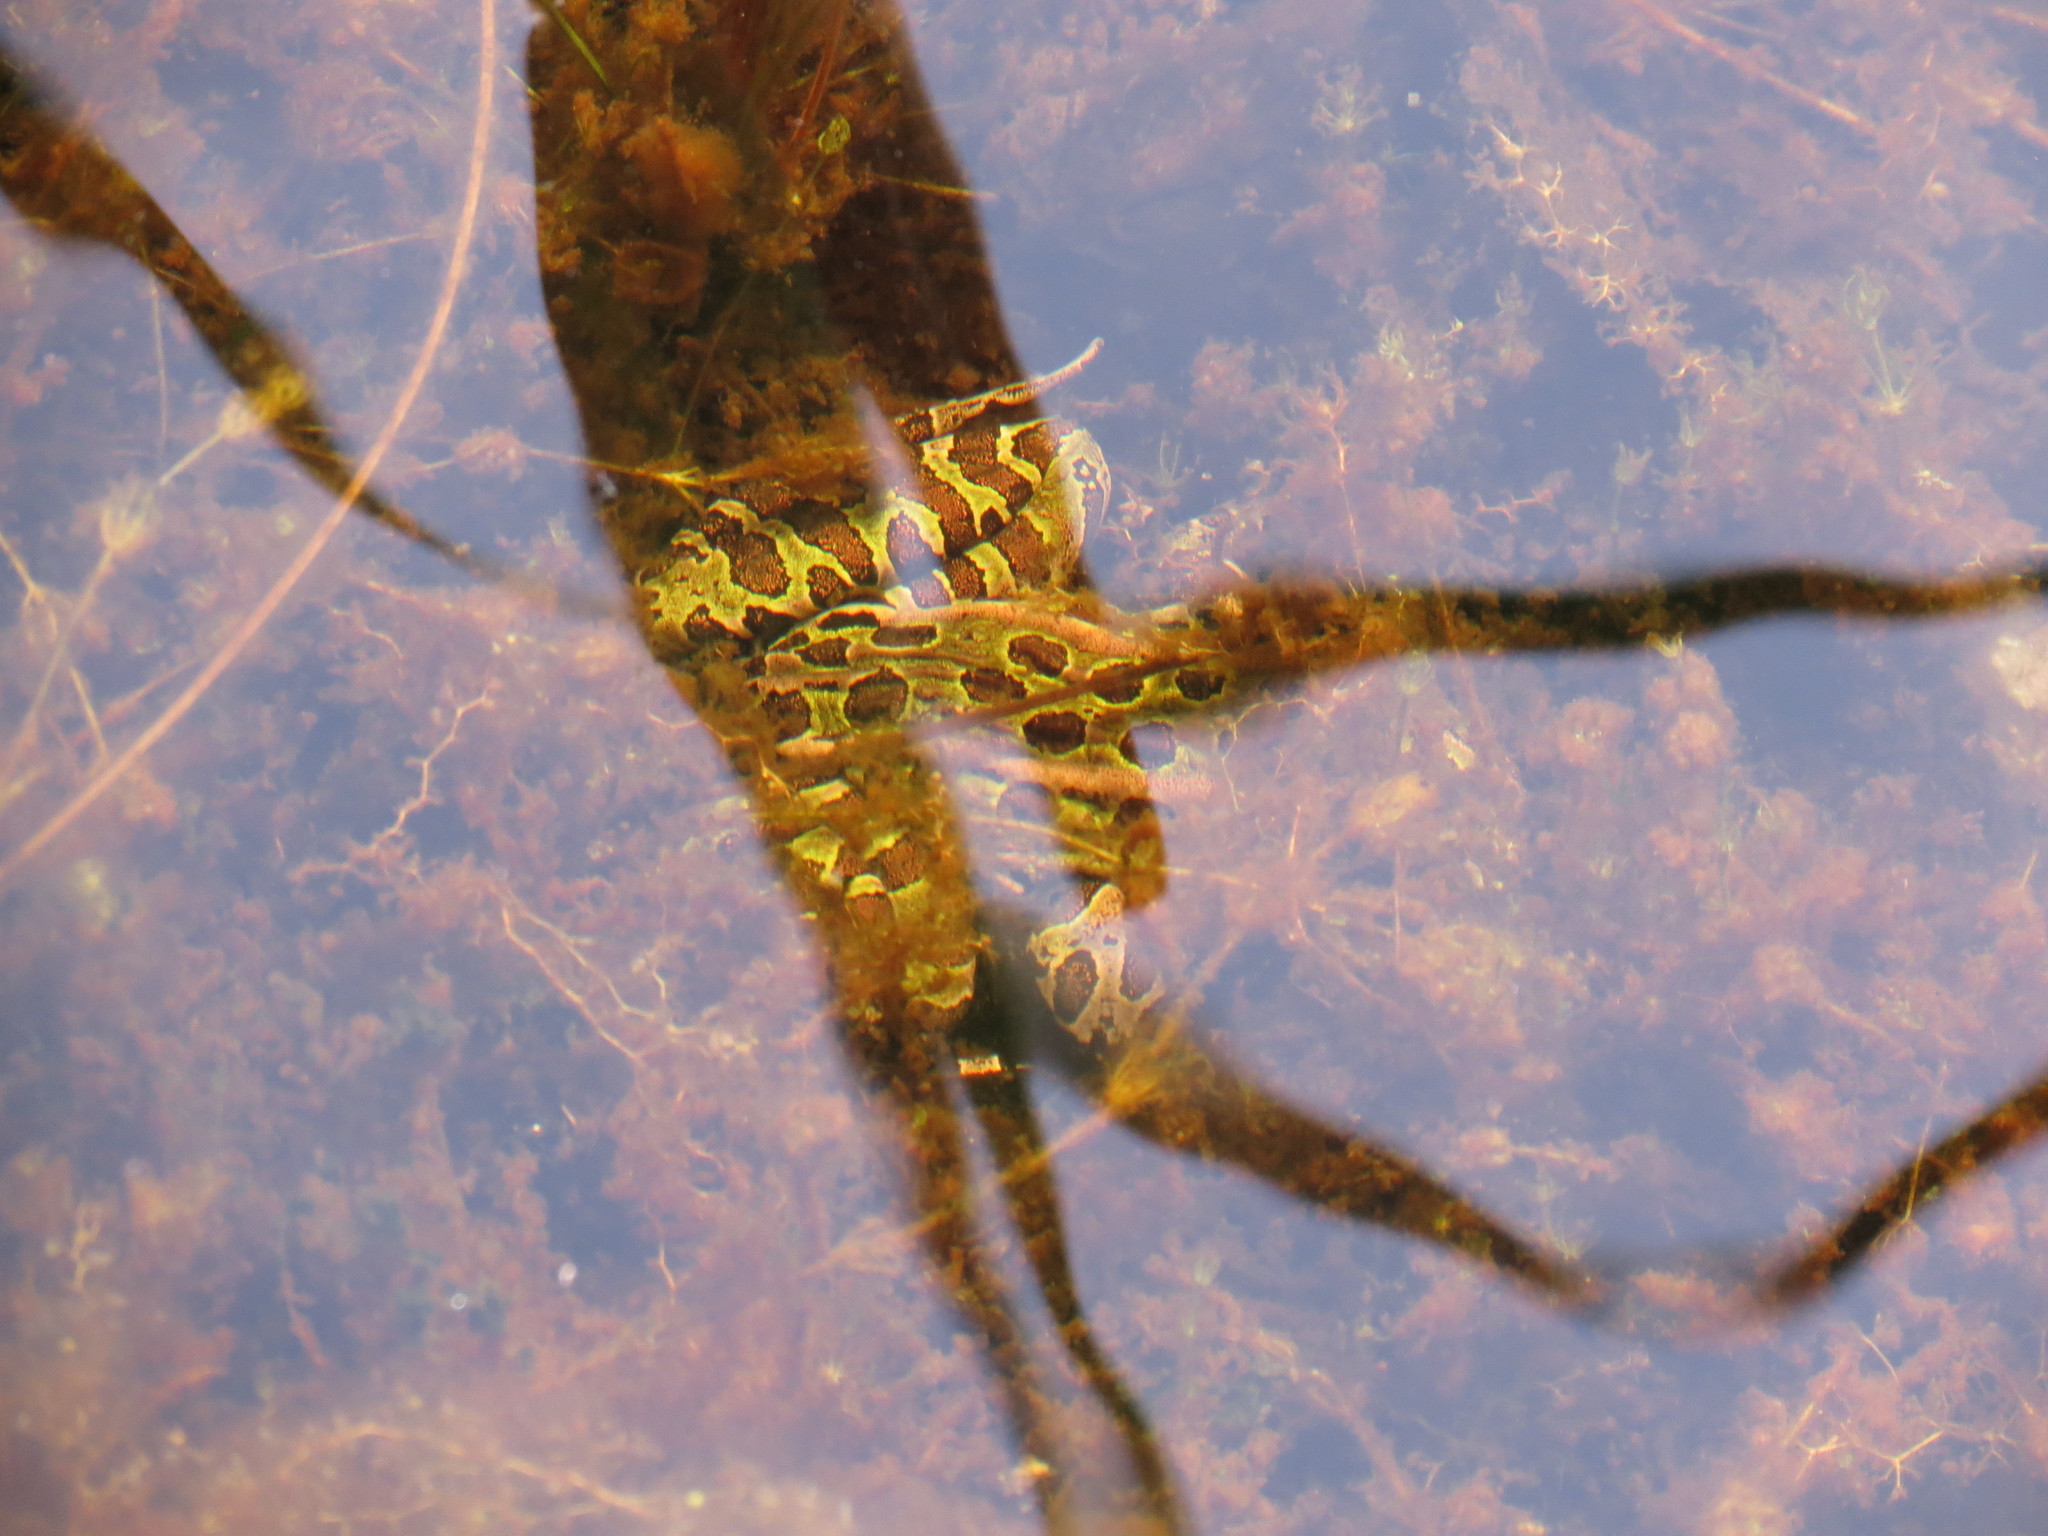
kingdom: Animalia
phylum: Chordata
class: Amphibia
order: Anura
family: Ranidae
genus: Lithobates
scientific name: Lithobates pipiens
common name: Northern leopard frog
